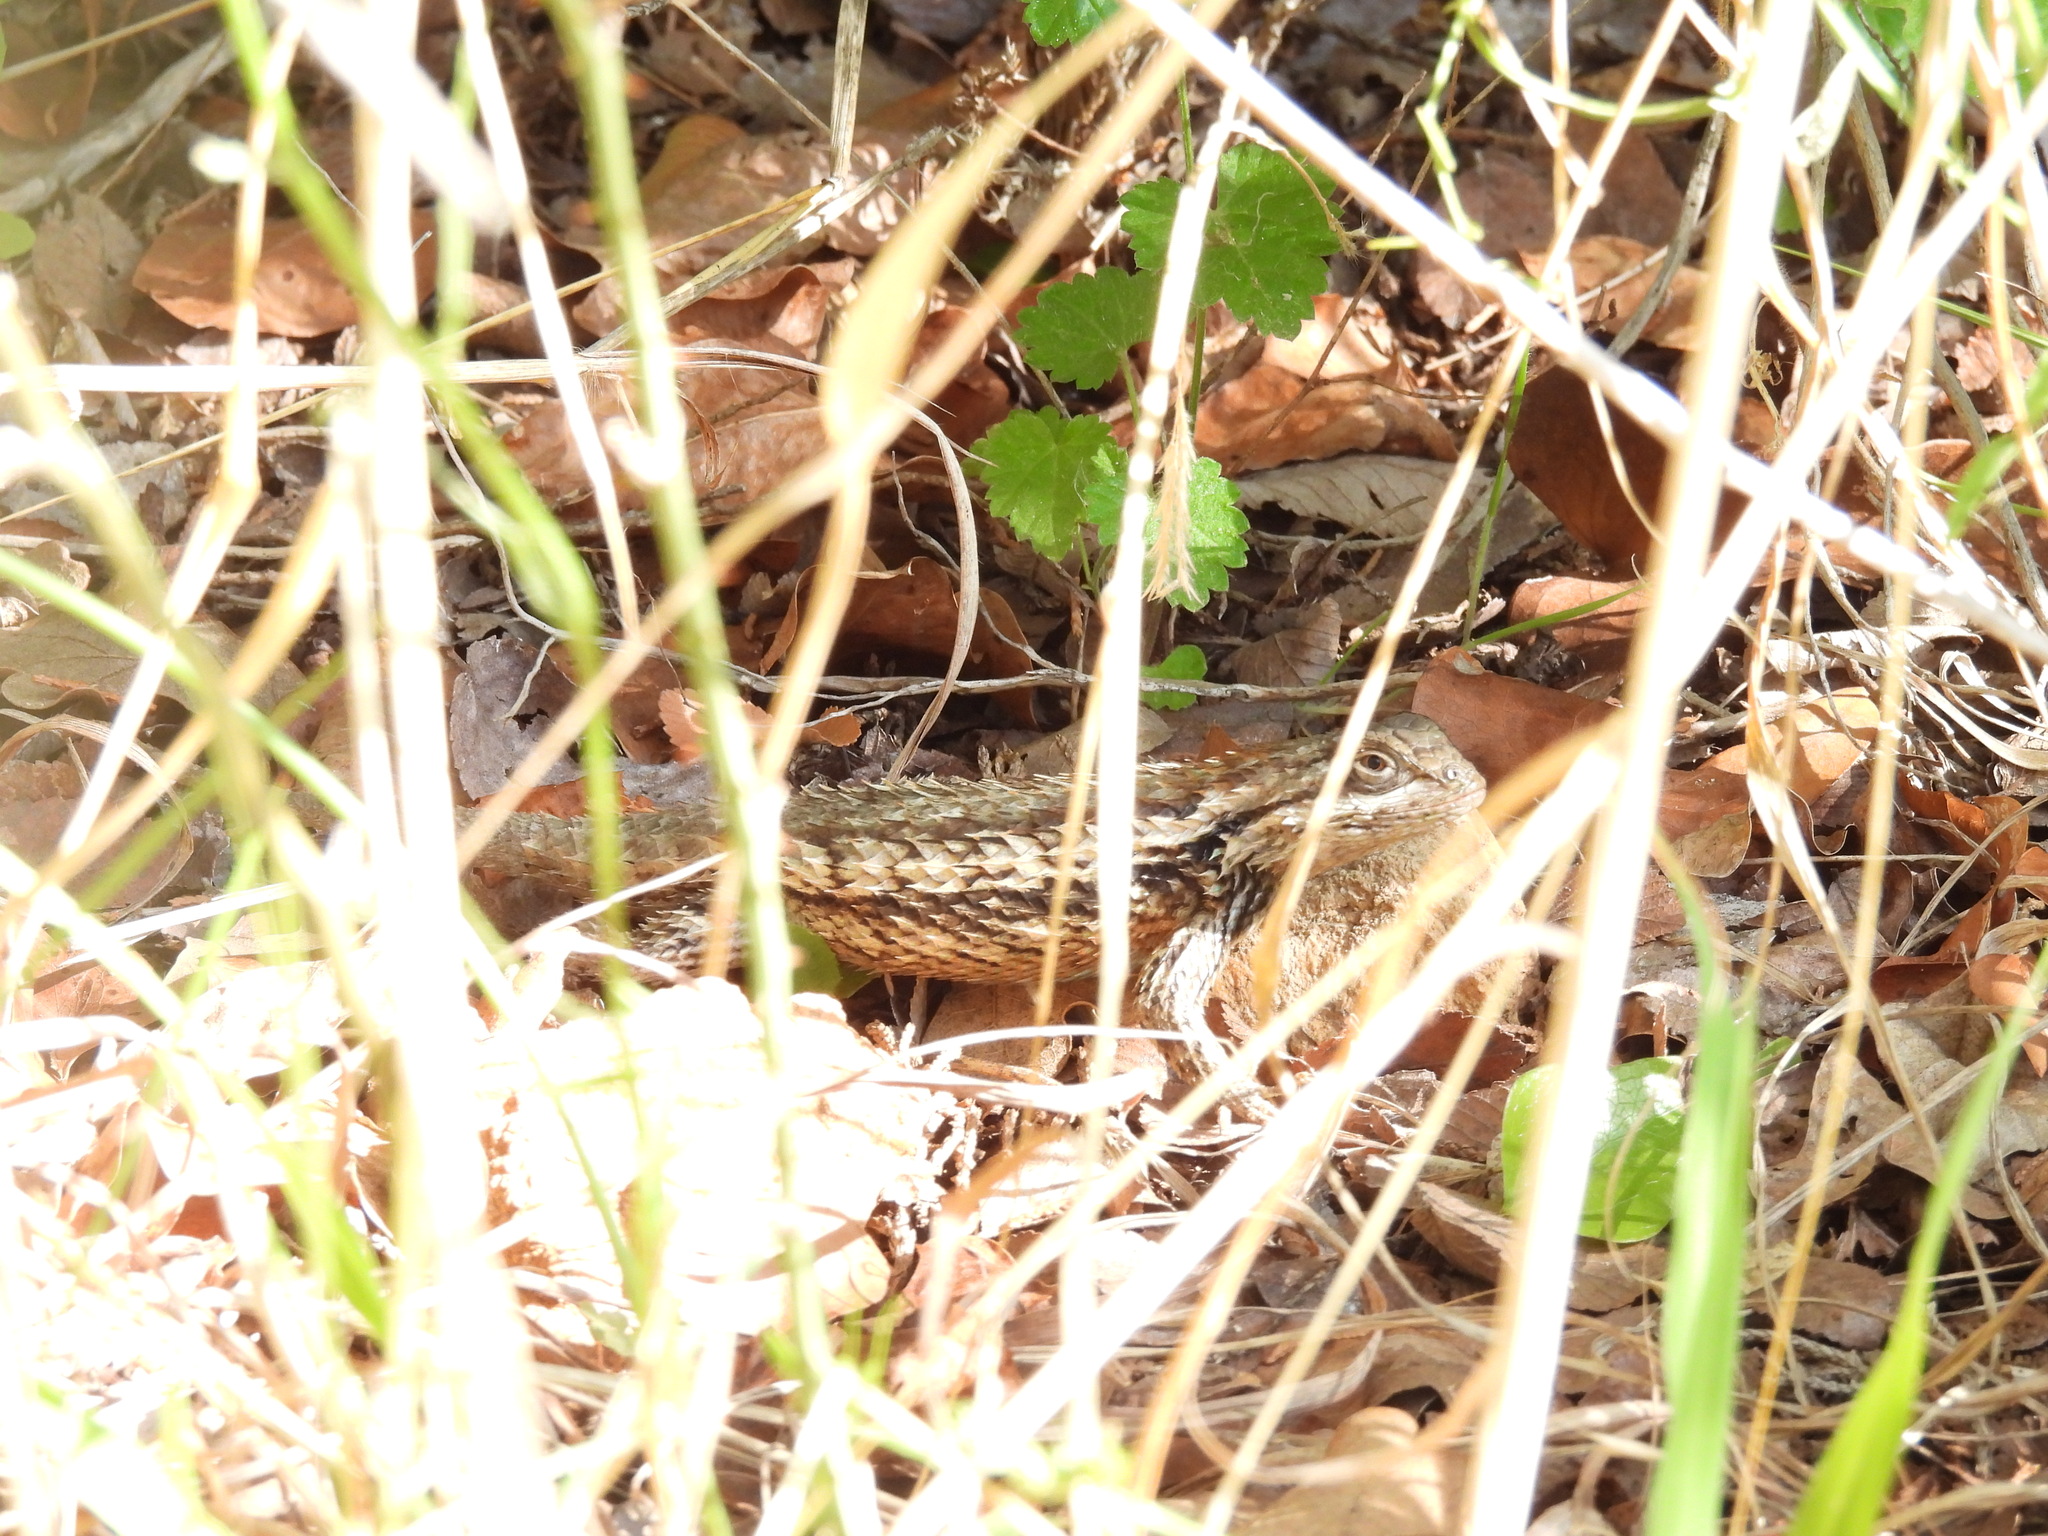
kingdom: Animalia
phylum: Chordata
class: Squamata
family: Phrynosomatidae
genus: Sceloporus
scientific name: Sceloporus olivaceus
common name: Texas spiny lizard
